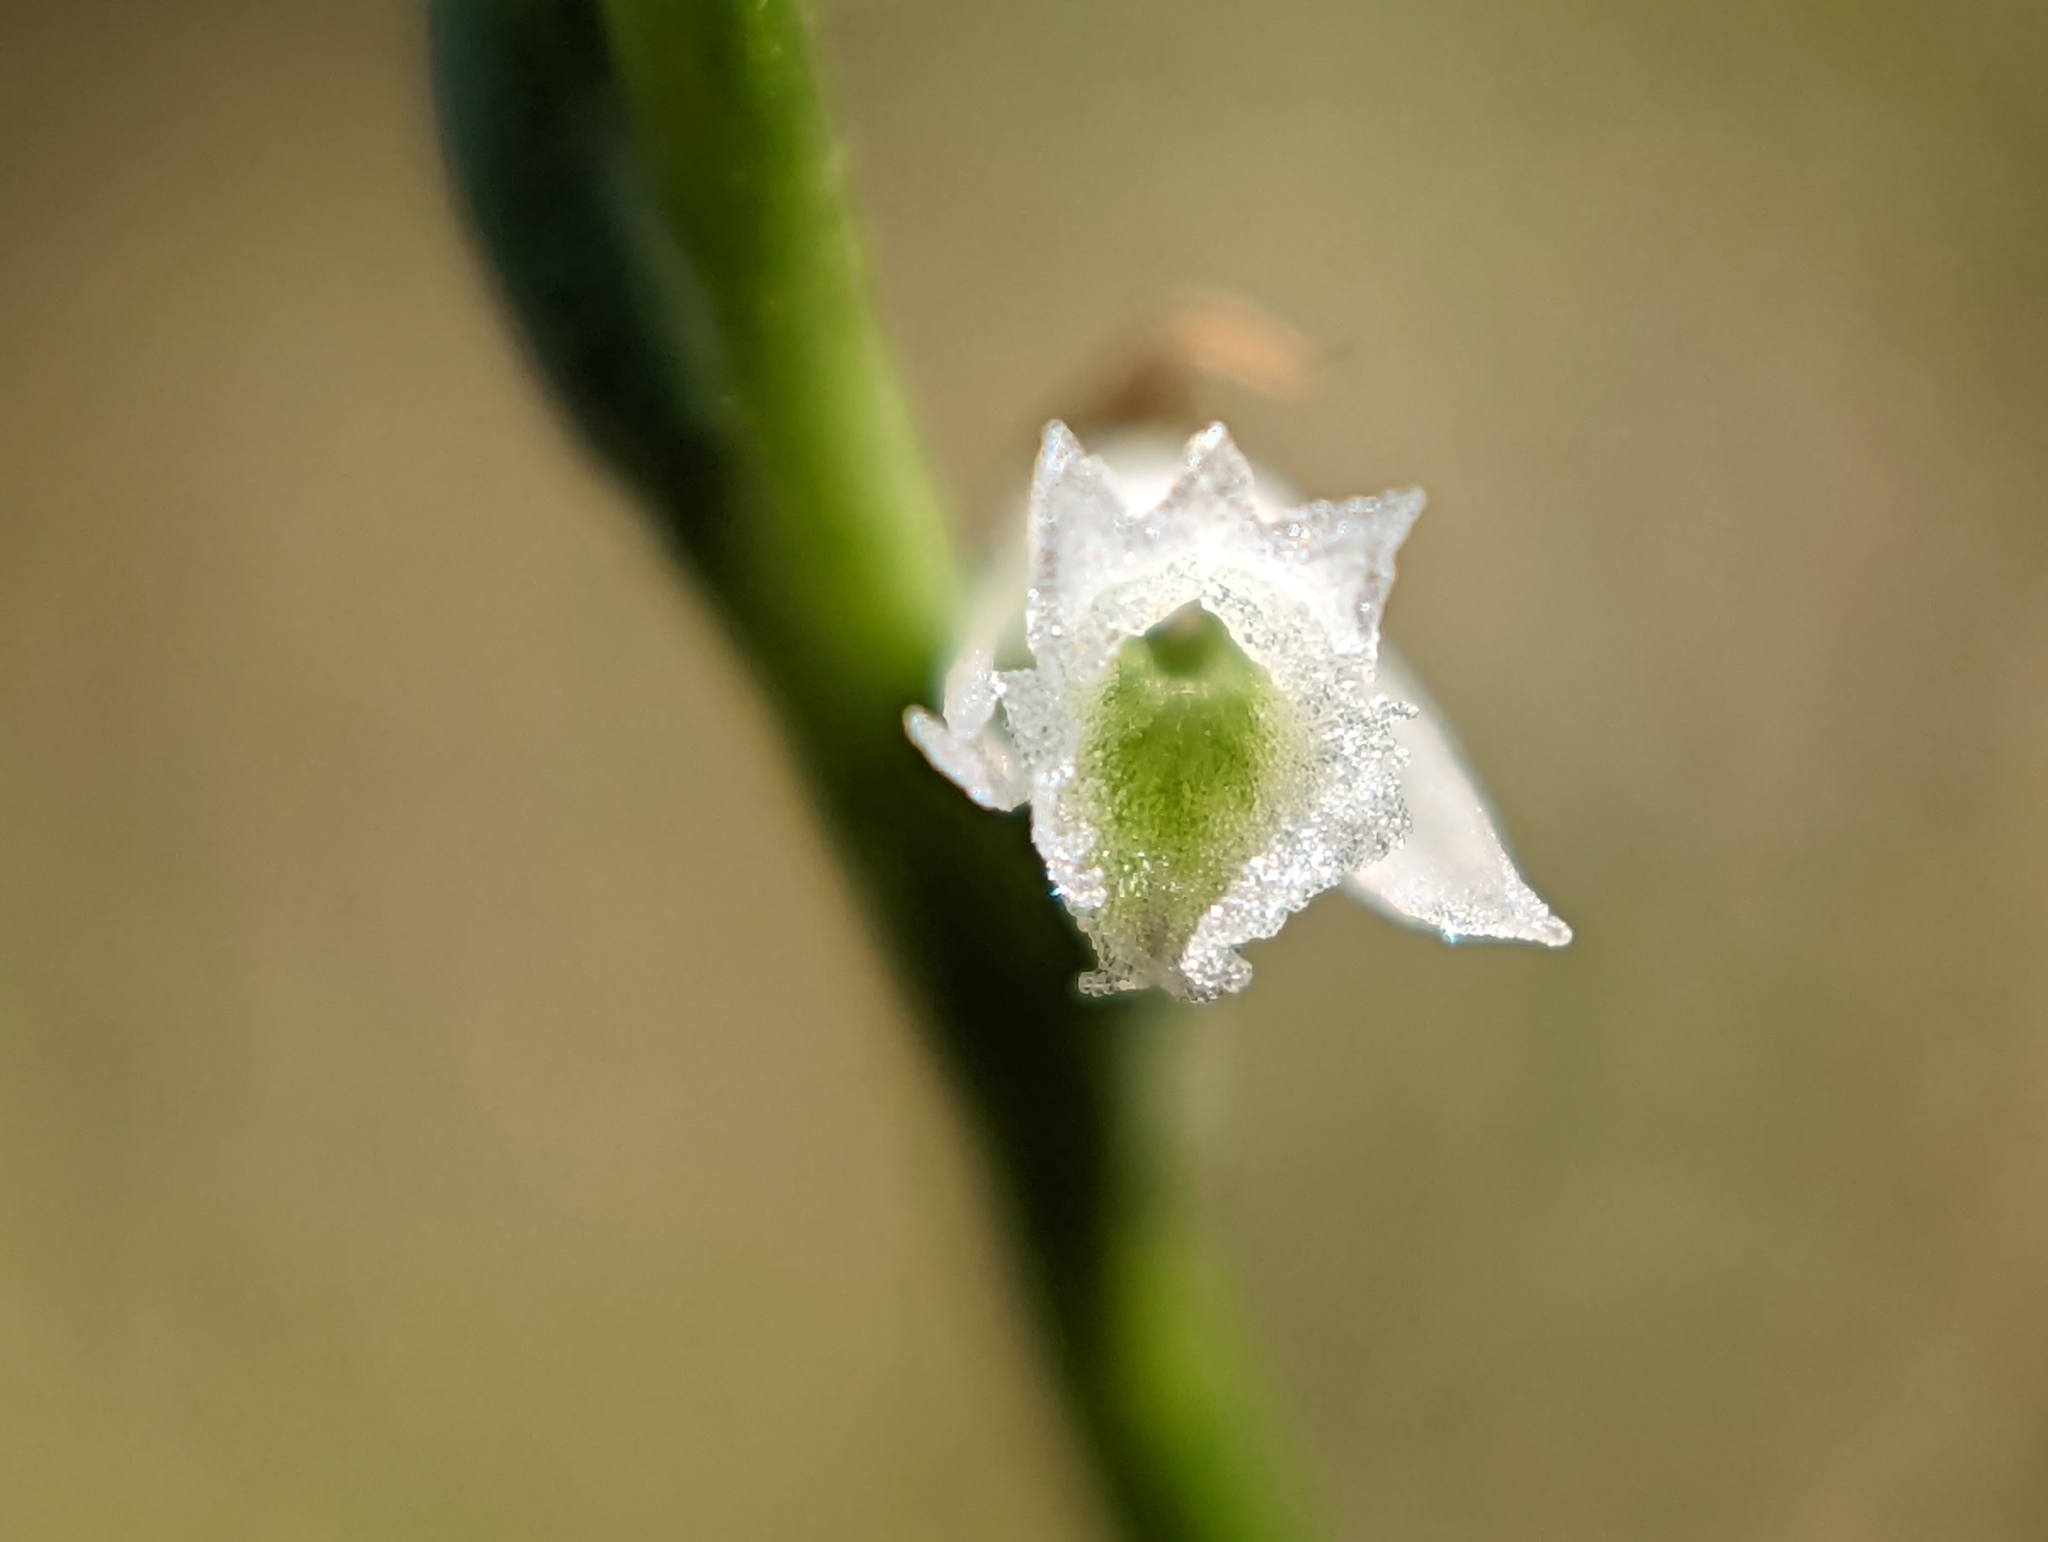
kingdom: Plantae
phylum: Tracheophyta
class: Liliopsida
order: Asparagales
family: Orchidaceae
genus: Spiranthes
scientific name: Spiranthes lacera
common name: Northern slender ladies'-tresses
